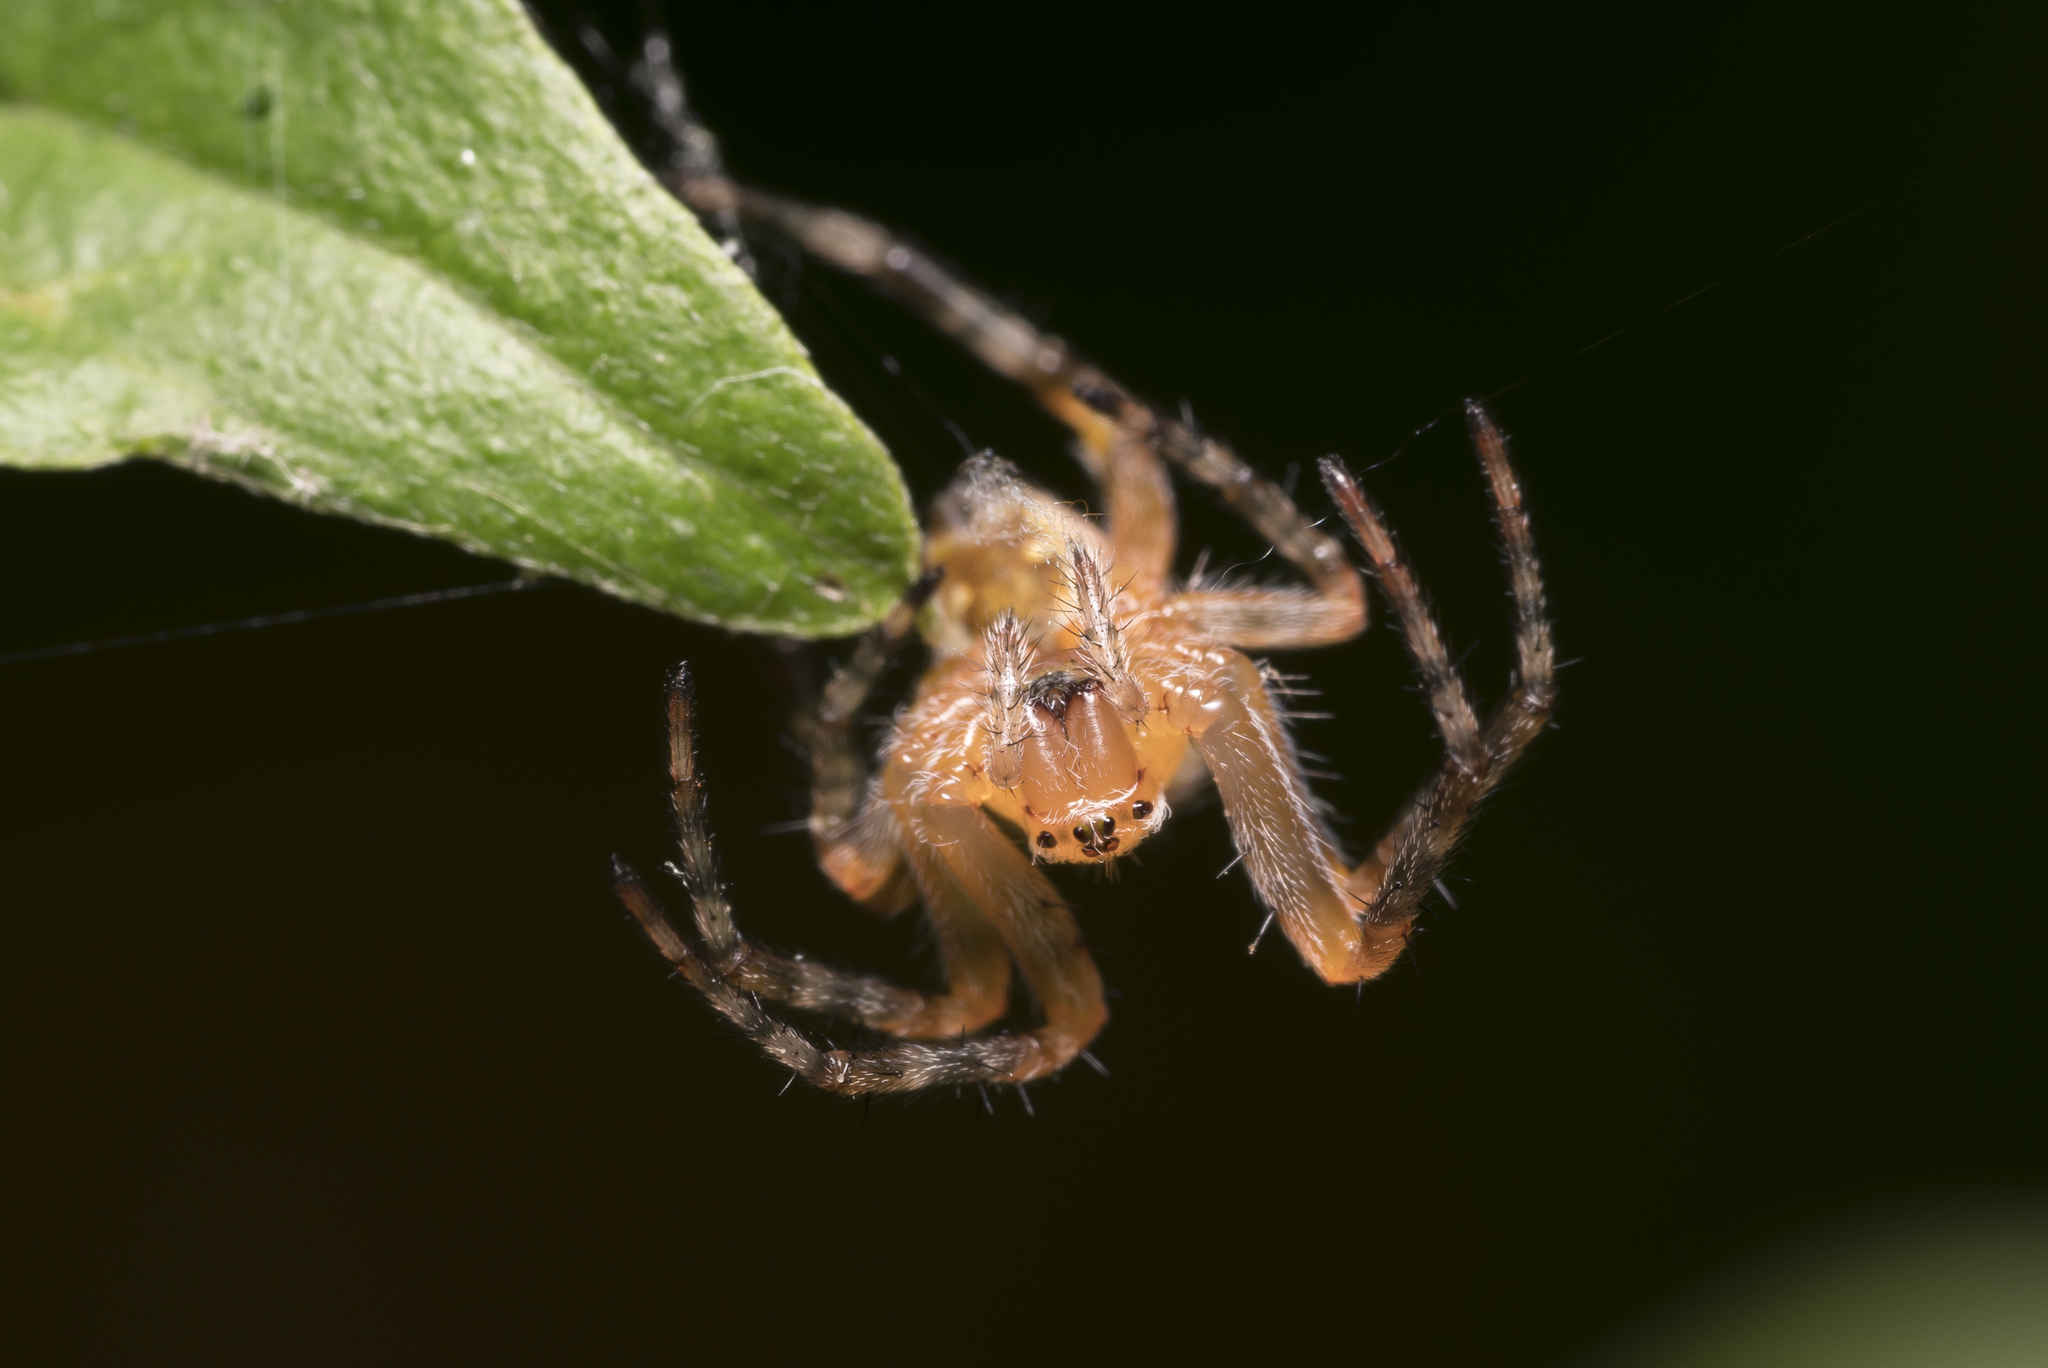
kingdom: Animalia
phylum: Arthropoda
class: Arachnida
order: Araneae
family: Araneidae
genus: Araneus
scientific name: Araneus diadematus
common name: Cross orbweaver
